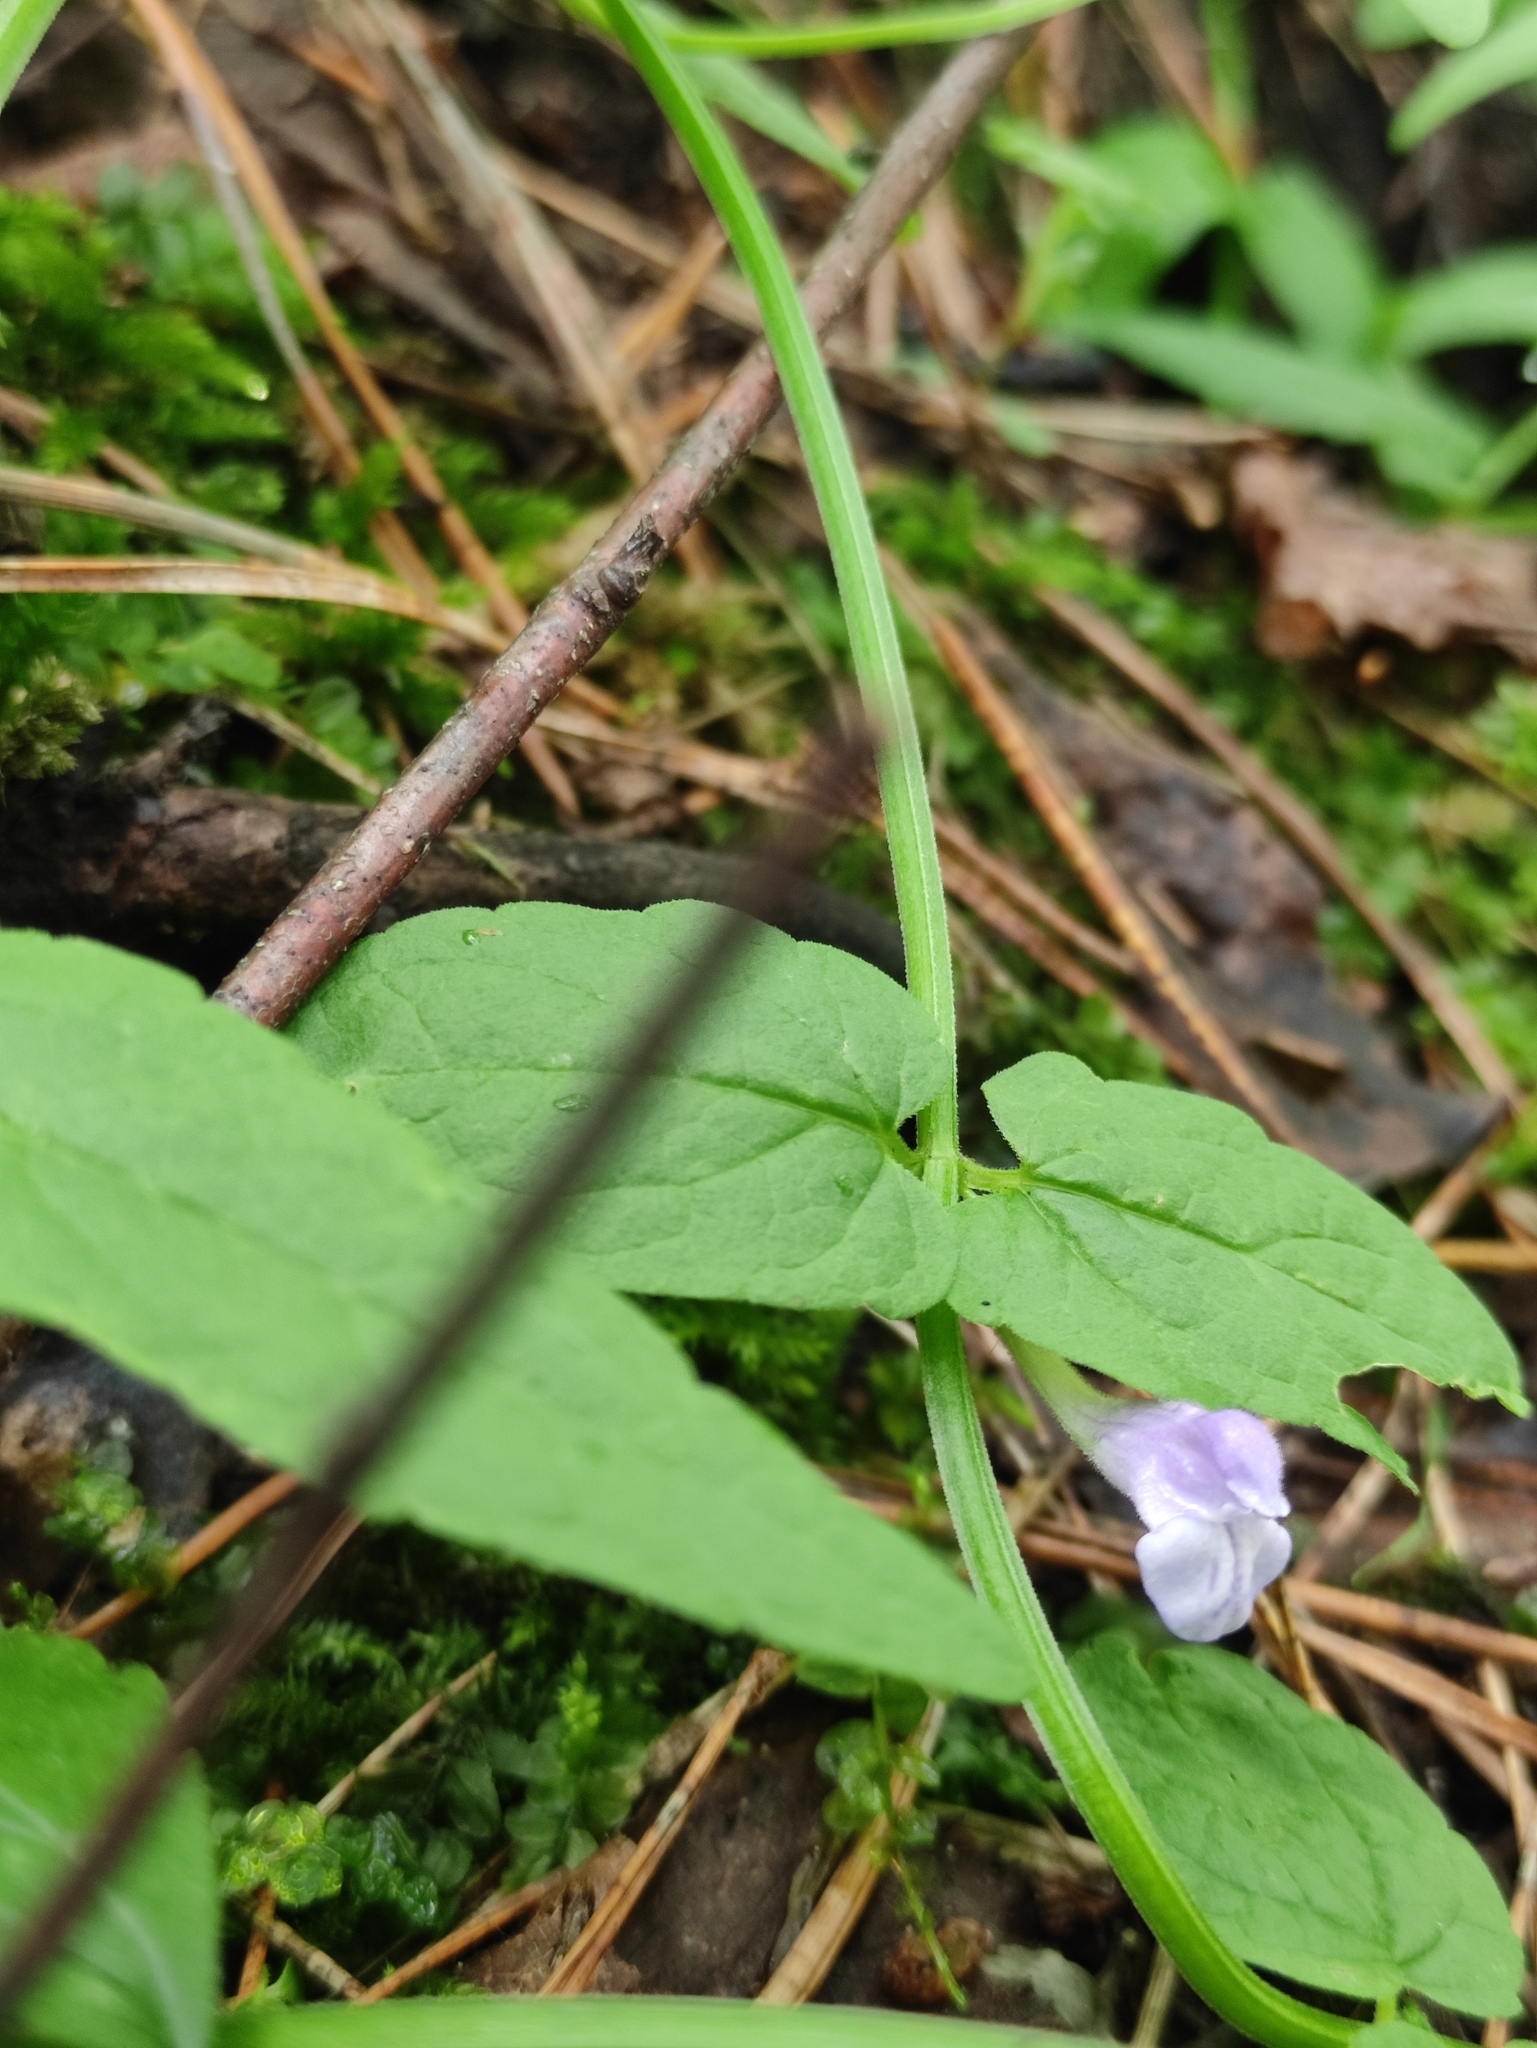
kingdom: Plantae
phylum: Tracheophyta
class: Magnoliopsida
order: Lamiales
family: Lamiaceae
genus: Scutellaria
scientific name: Scutellaria galericulata
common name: Skullcap
